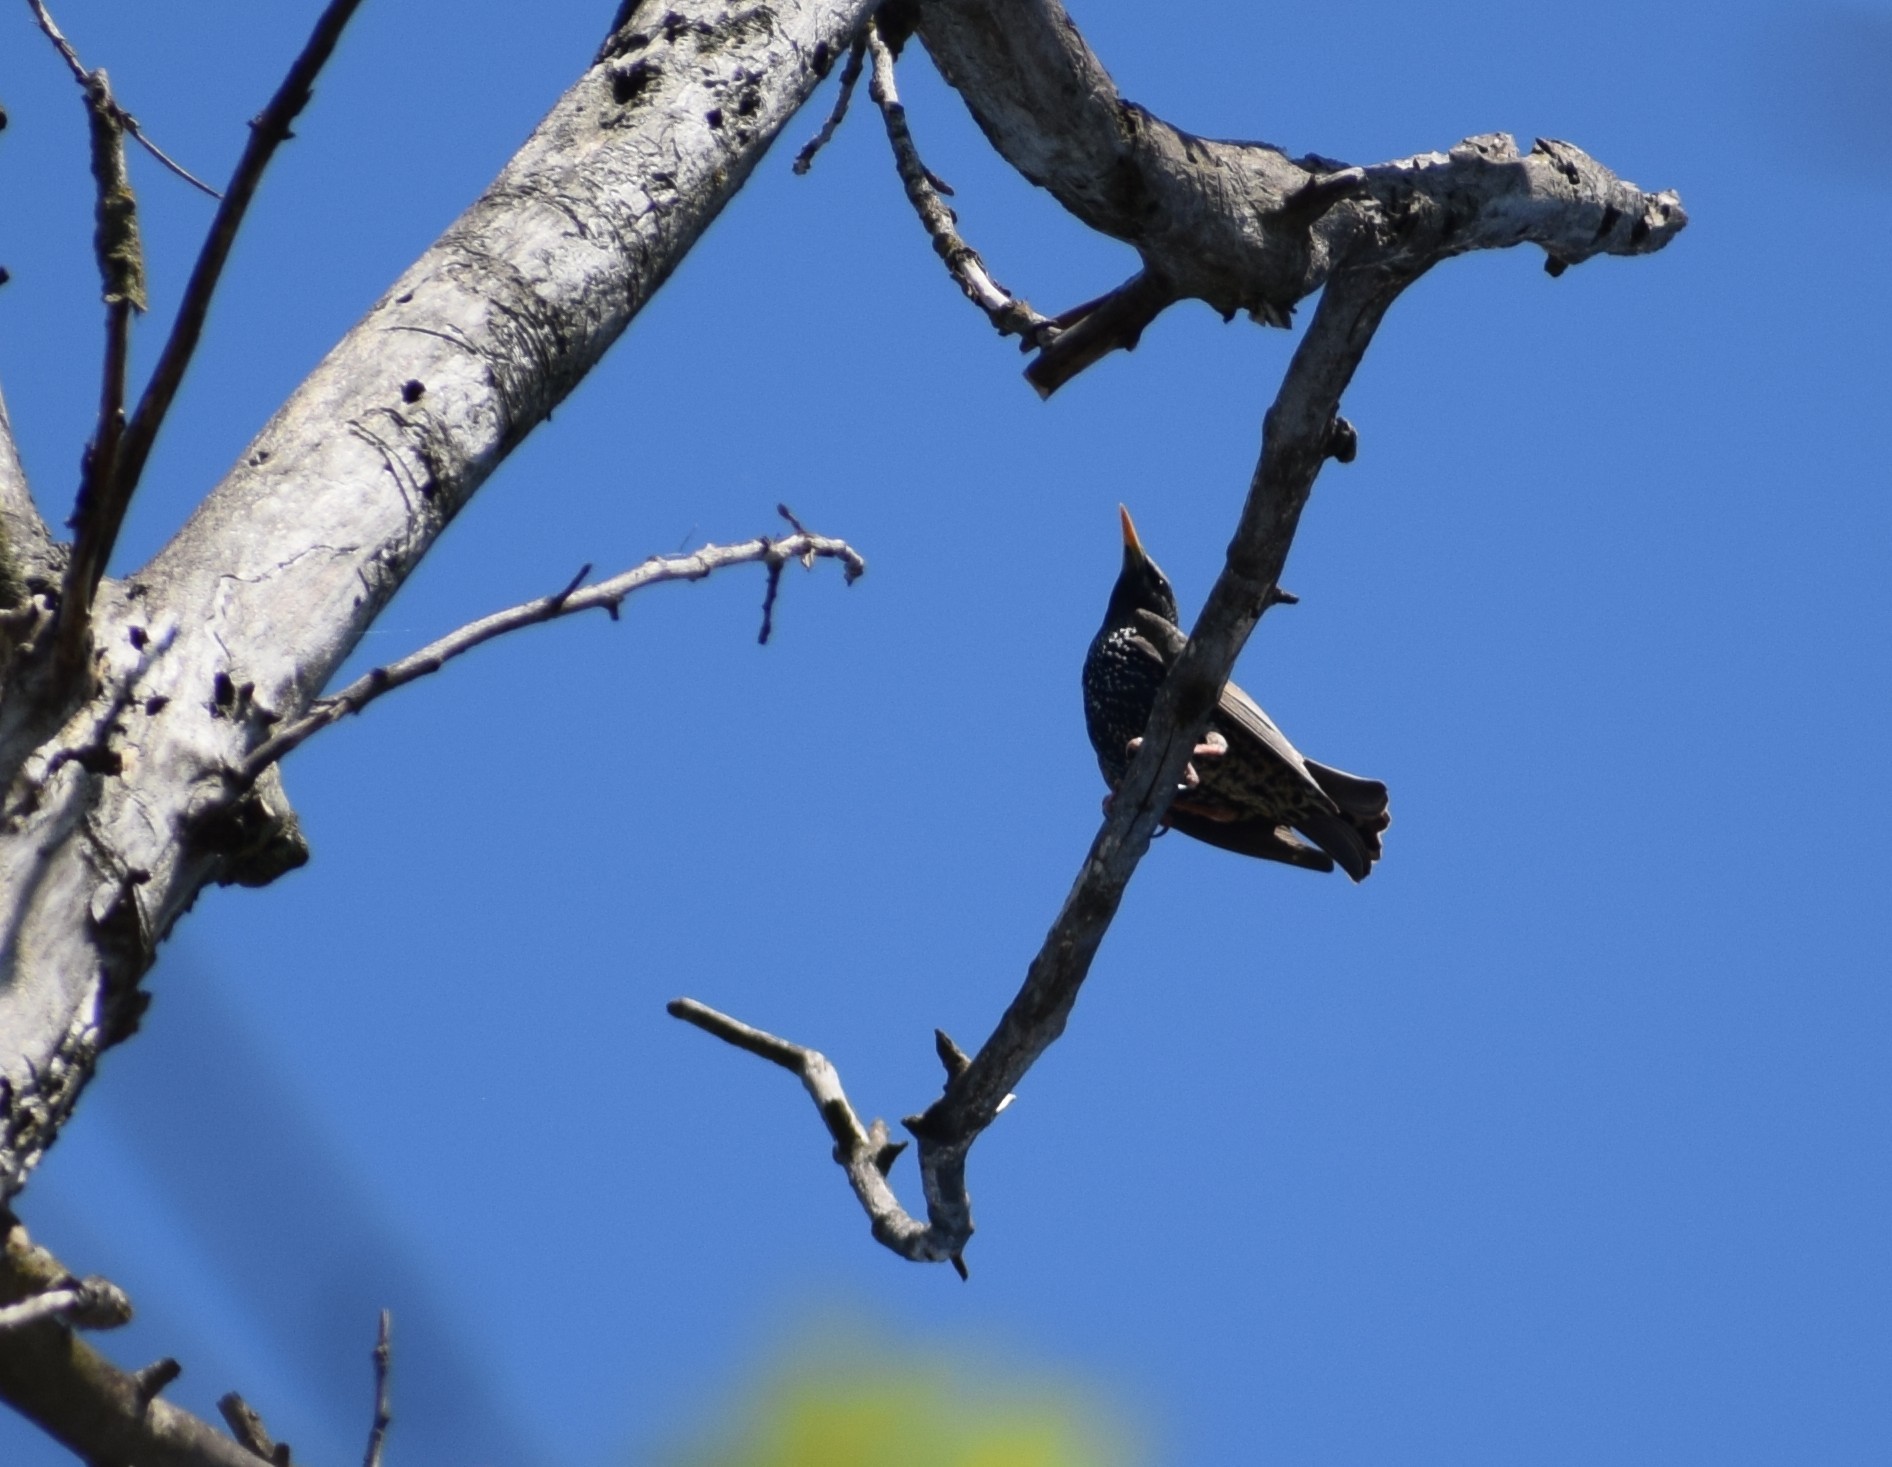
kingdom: Animalia
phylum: Chordata
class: Aves
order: Passeriformes
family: Sturnidae
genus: Sturnus
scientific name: Sturnus vulgaris
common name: Common starling
